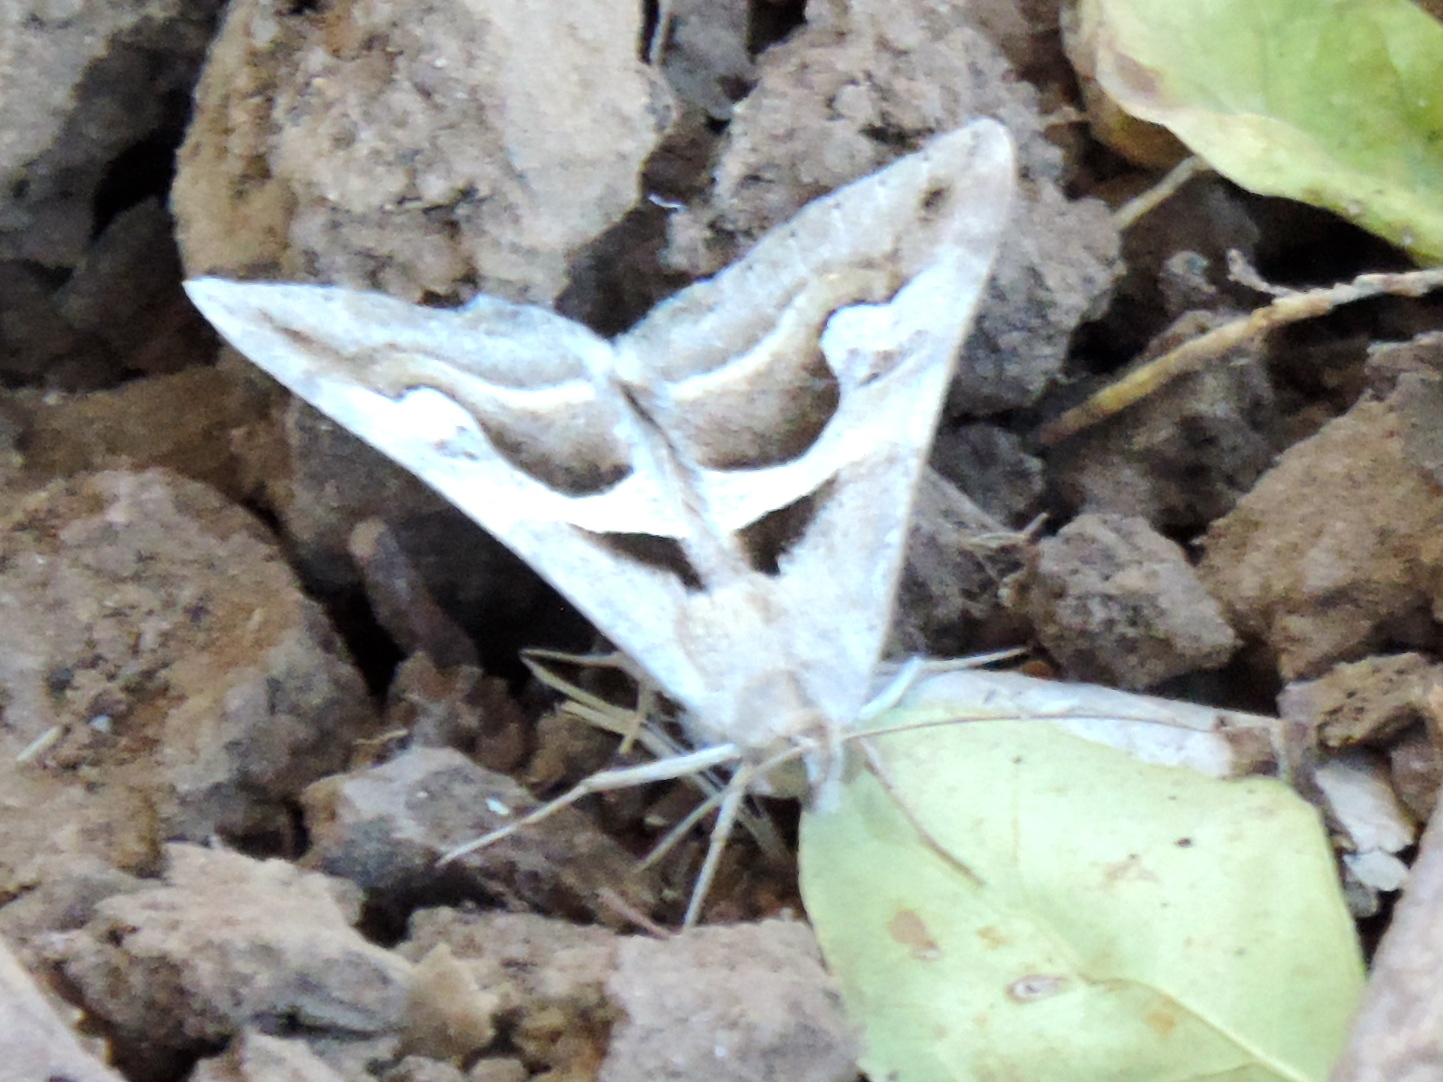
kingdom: Animalia
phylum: Arthropoda
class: Insecta
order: Lepidoptera
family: Erebidae
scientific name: Erebidae
